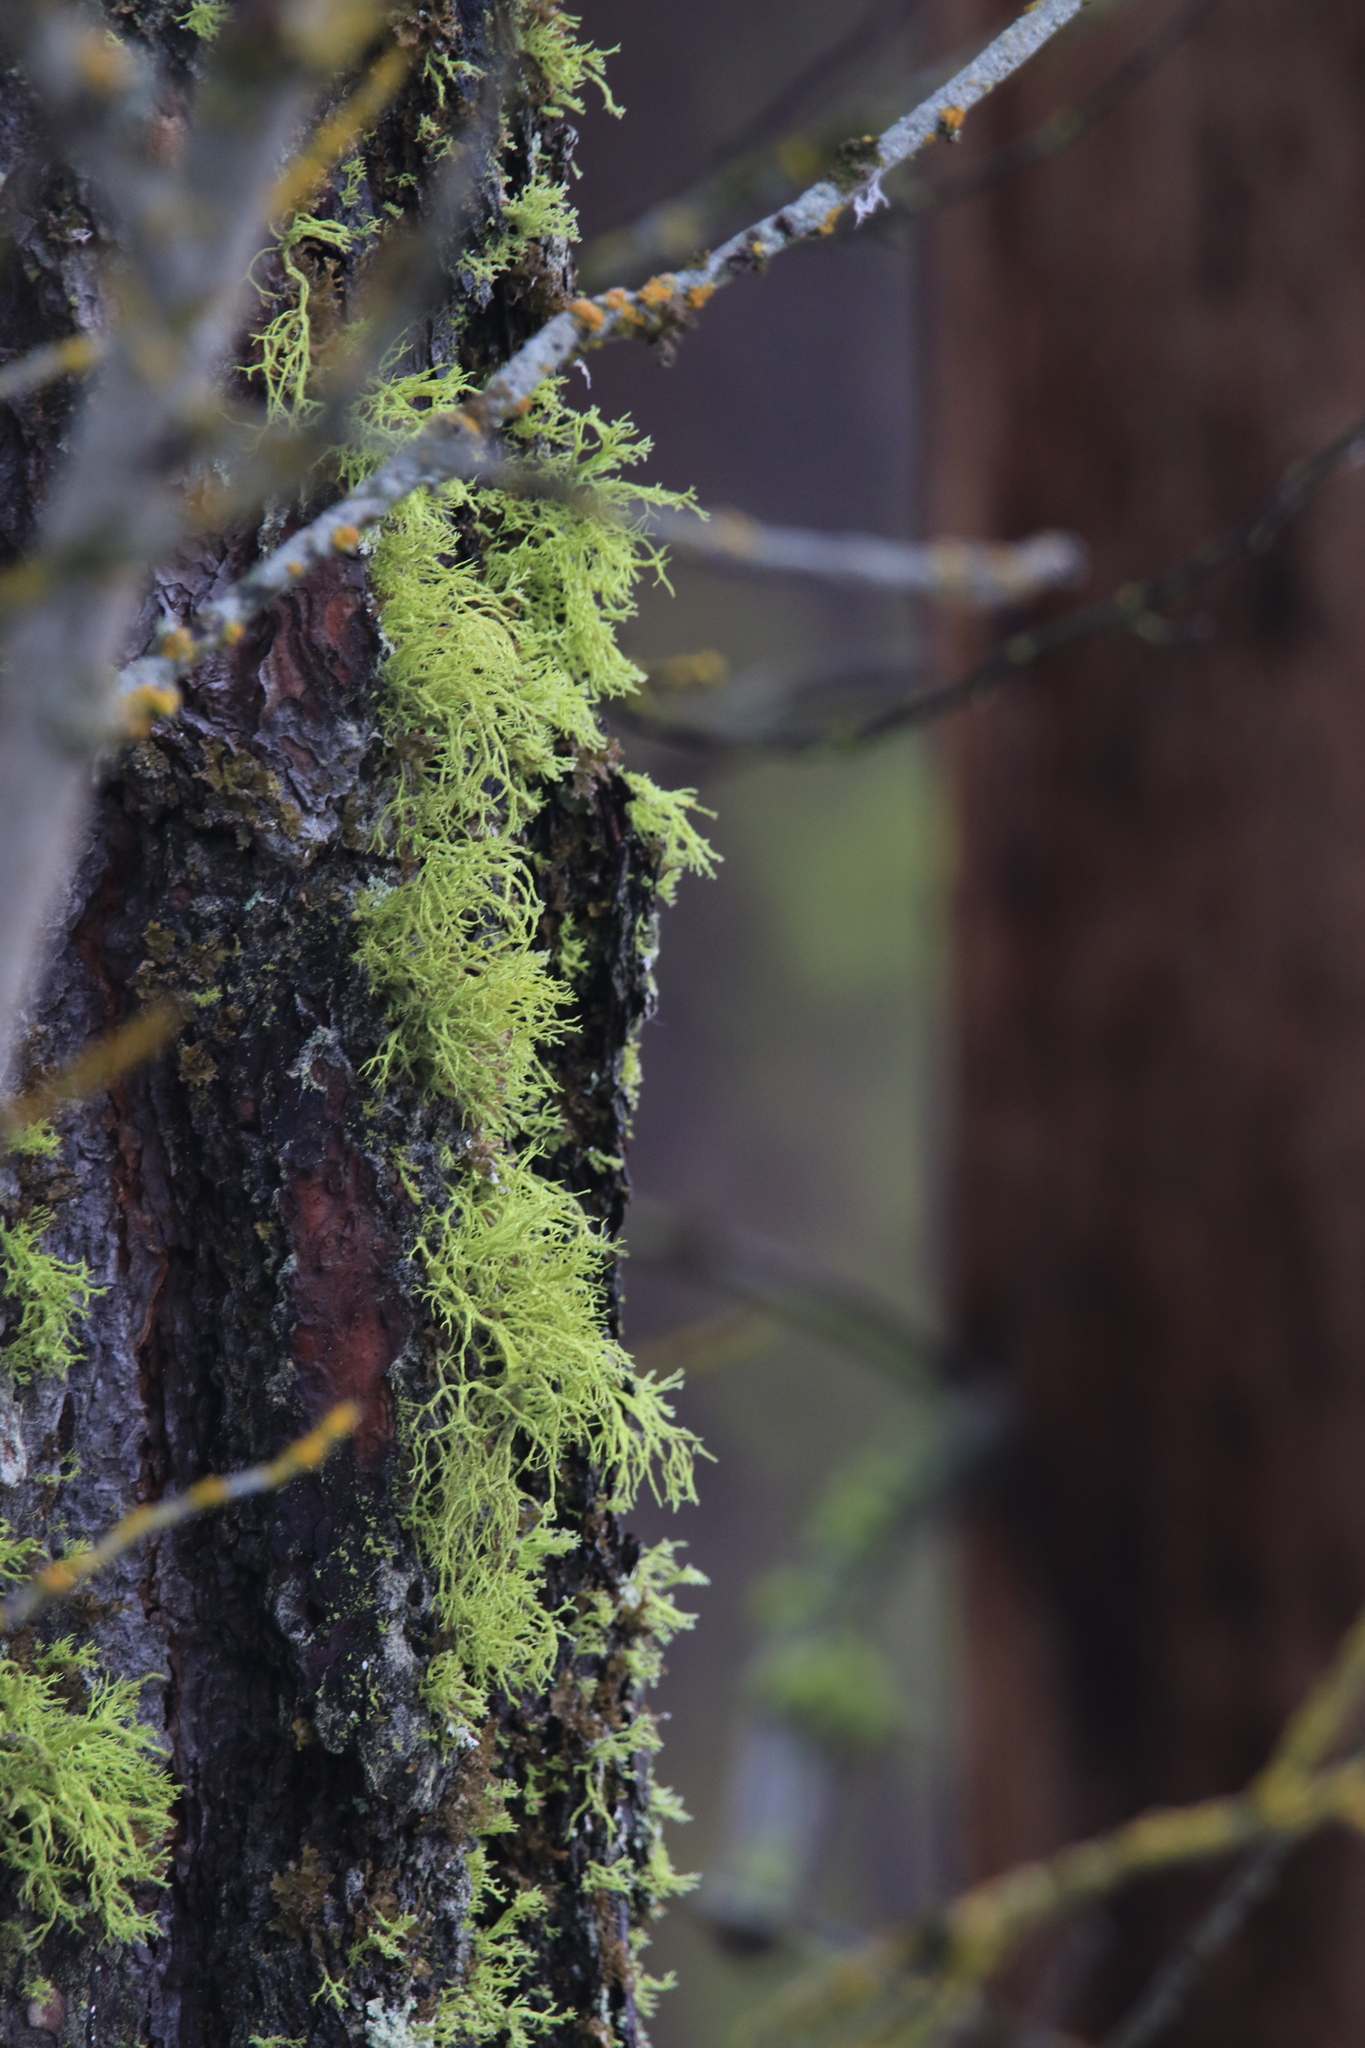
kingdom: Fungi
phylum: Ascomycota
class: Lecanoromycetes
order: Lecanorales
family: Parmeliaceae
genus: Letharia
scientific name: Letharia vulpina
